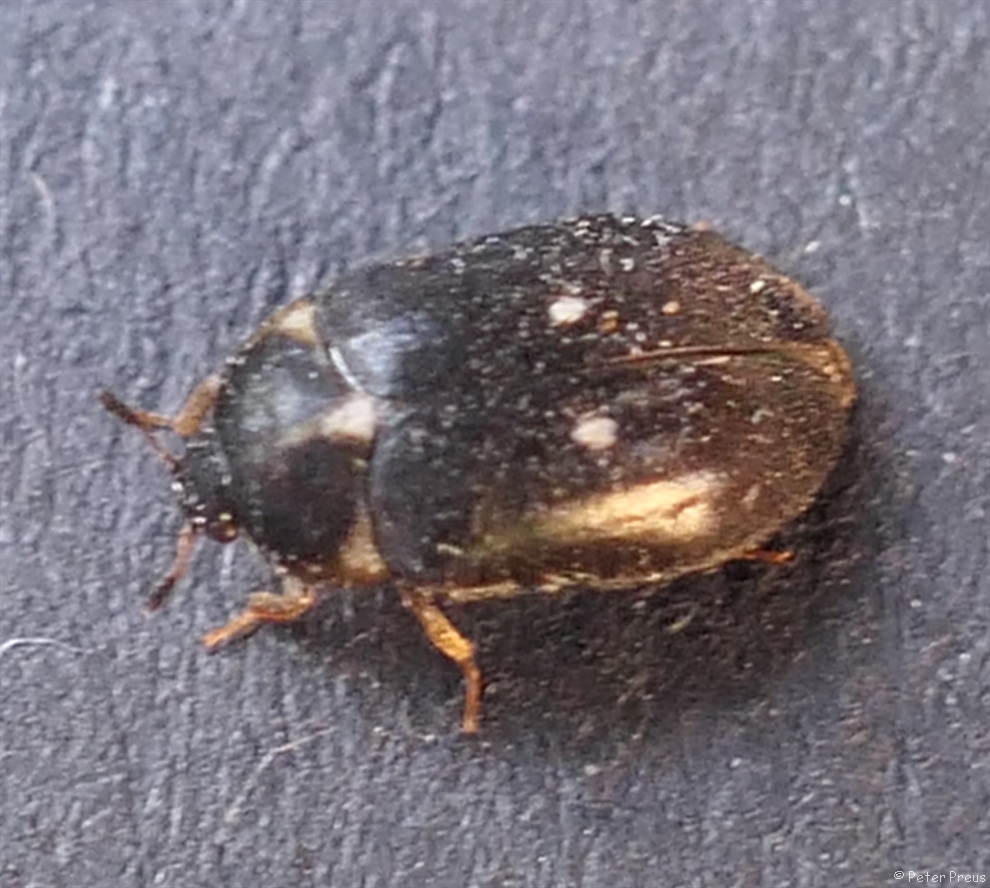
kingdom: Animalia
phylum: Arthropoda
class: Insecta
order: Coleoptera
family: Dermestidae
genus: Attagenus
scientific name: Attagenus pellio
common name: Two-spotted carpet beetle
